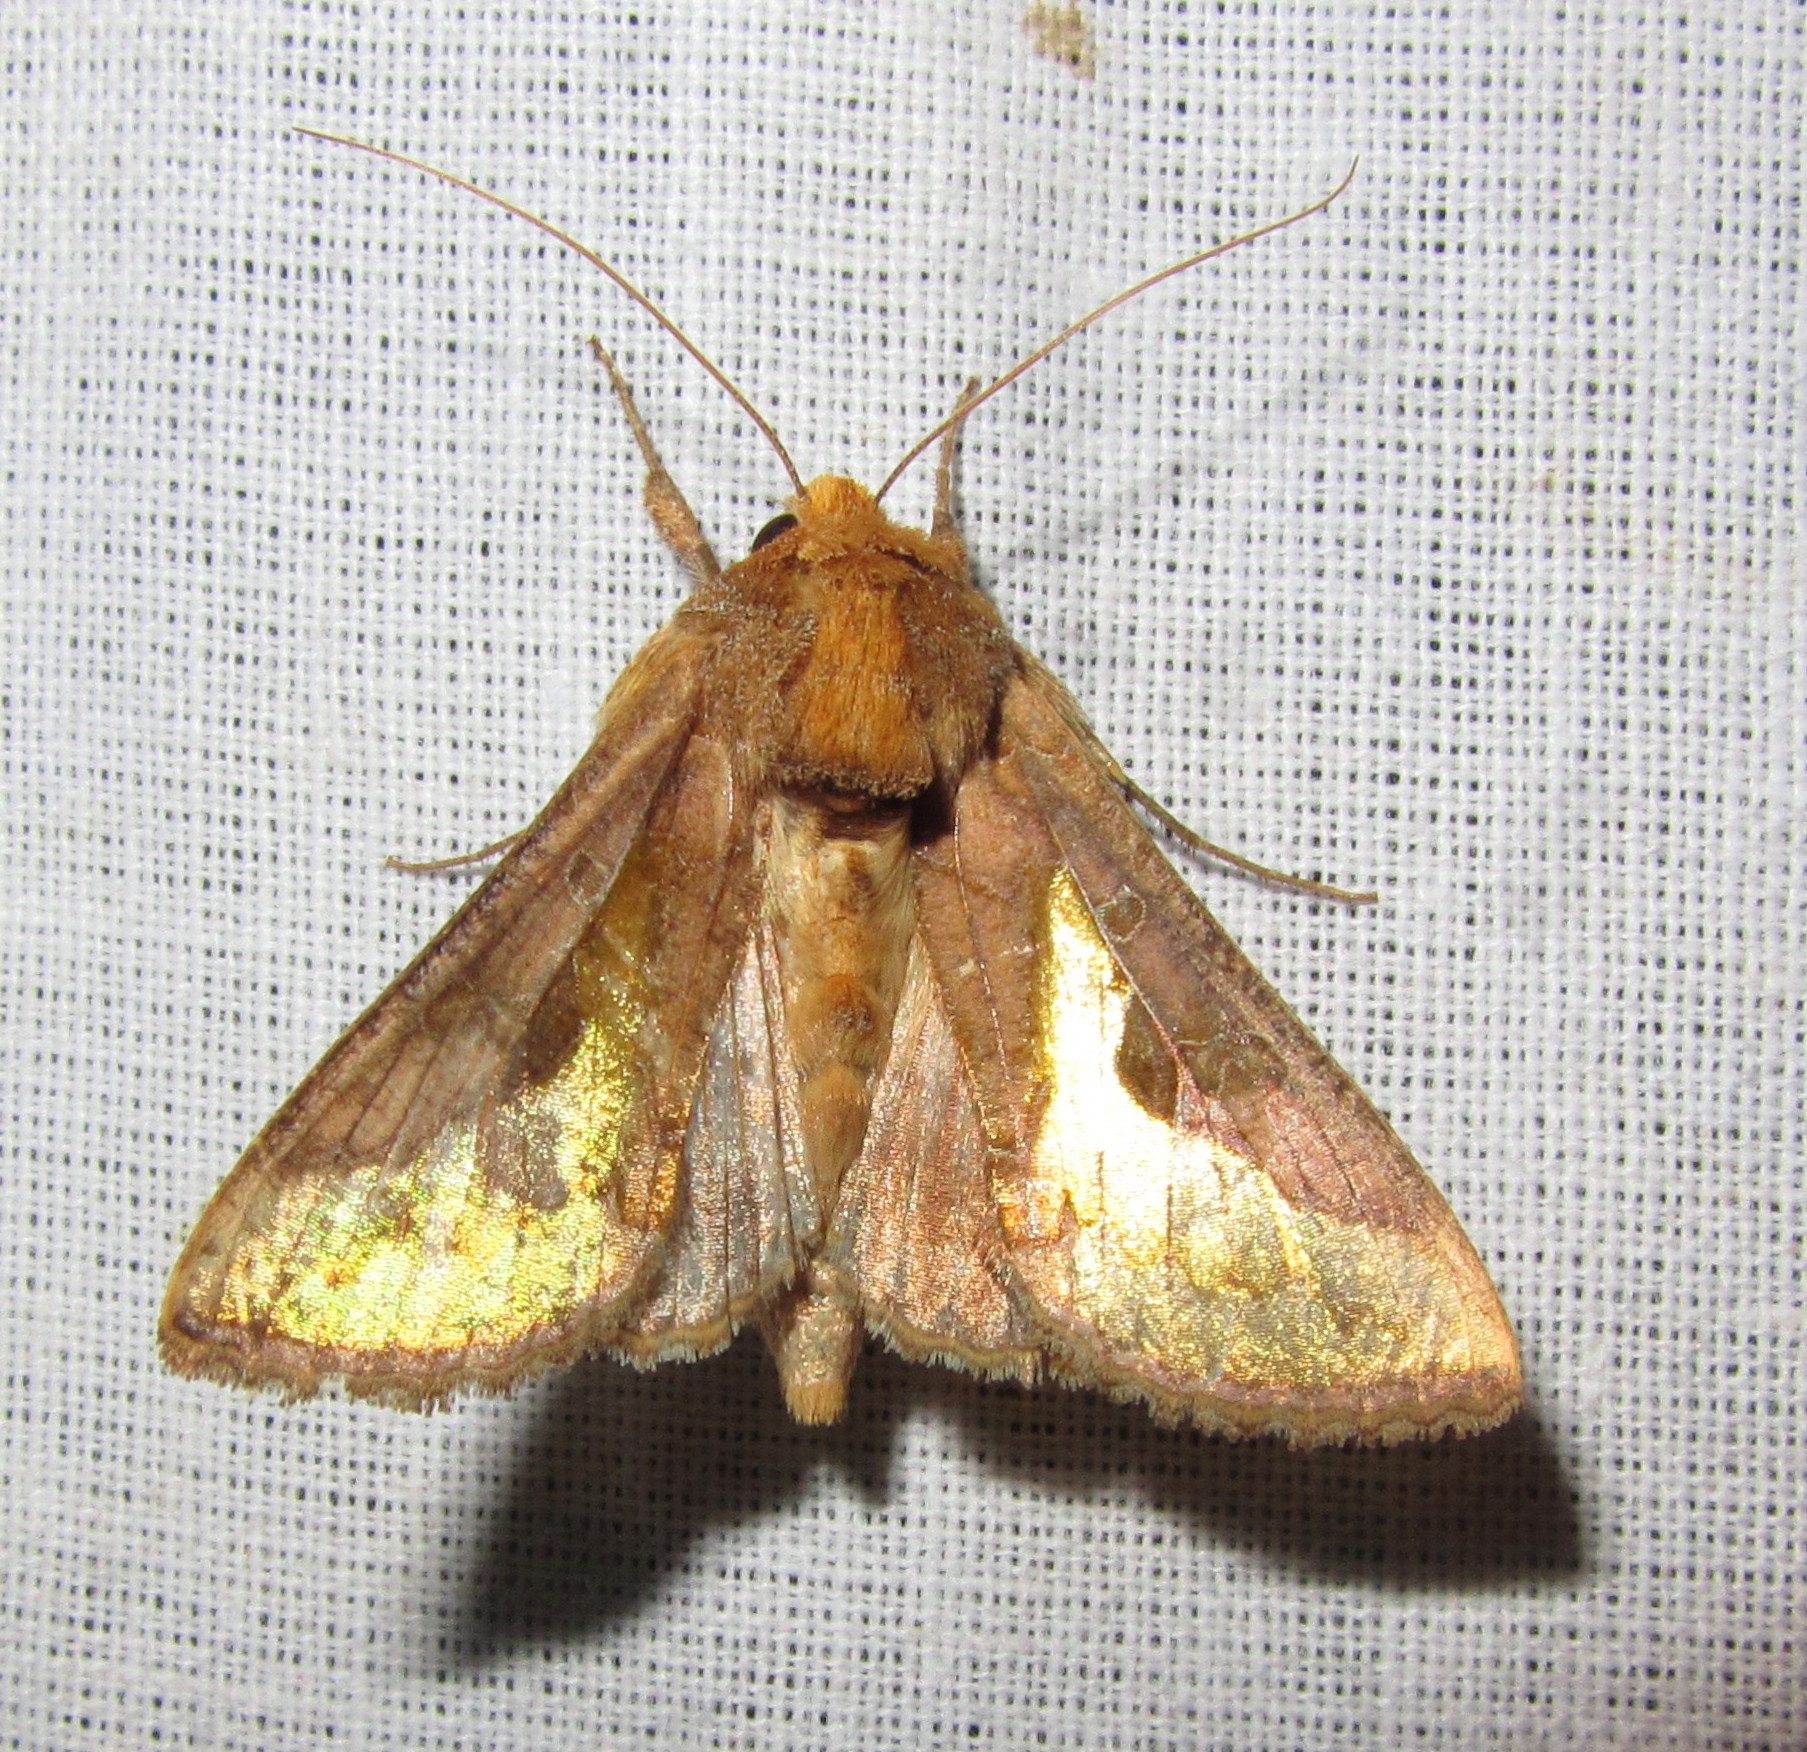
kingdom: Animalia
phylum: Arthropoda
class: Insecta
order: Lepidoptera
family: Noctuidae
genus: Thysanoplusia
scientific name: Thysanoplusia orichalcea
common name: Slender burnished brass, golden plusia
